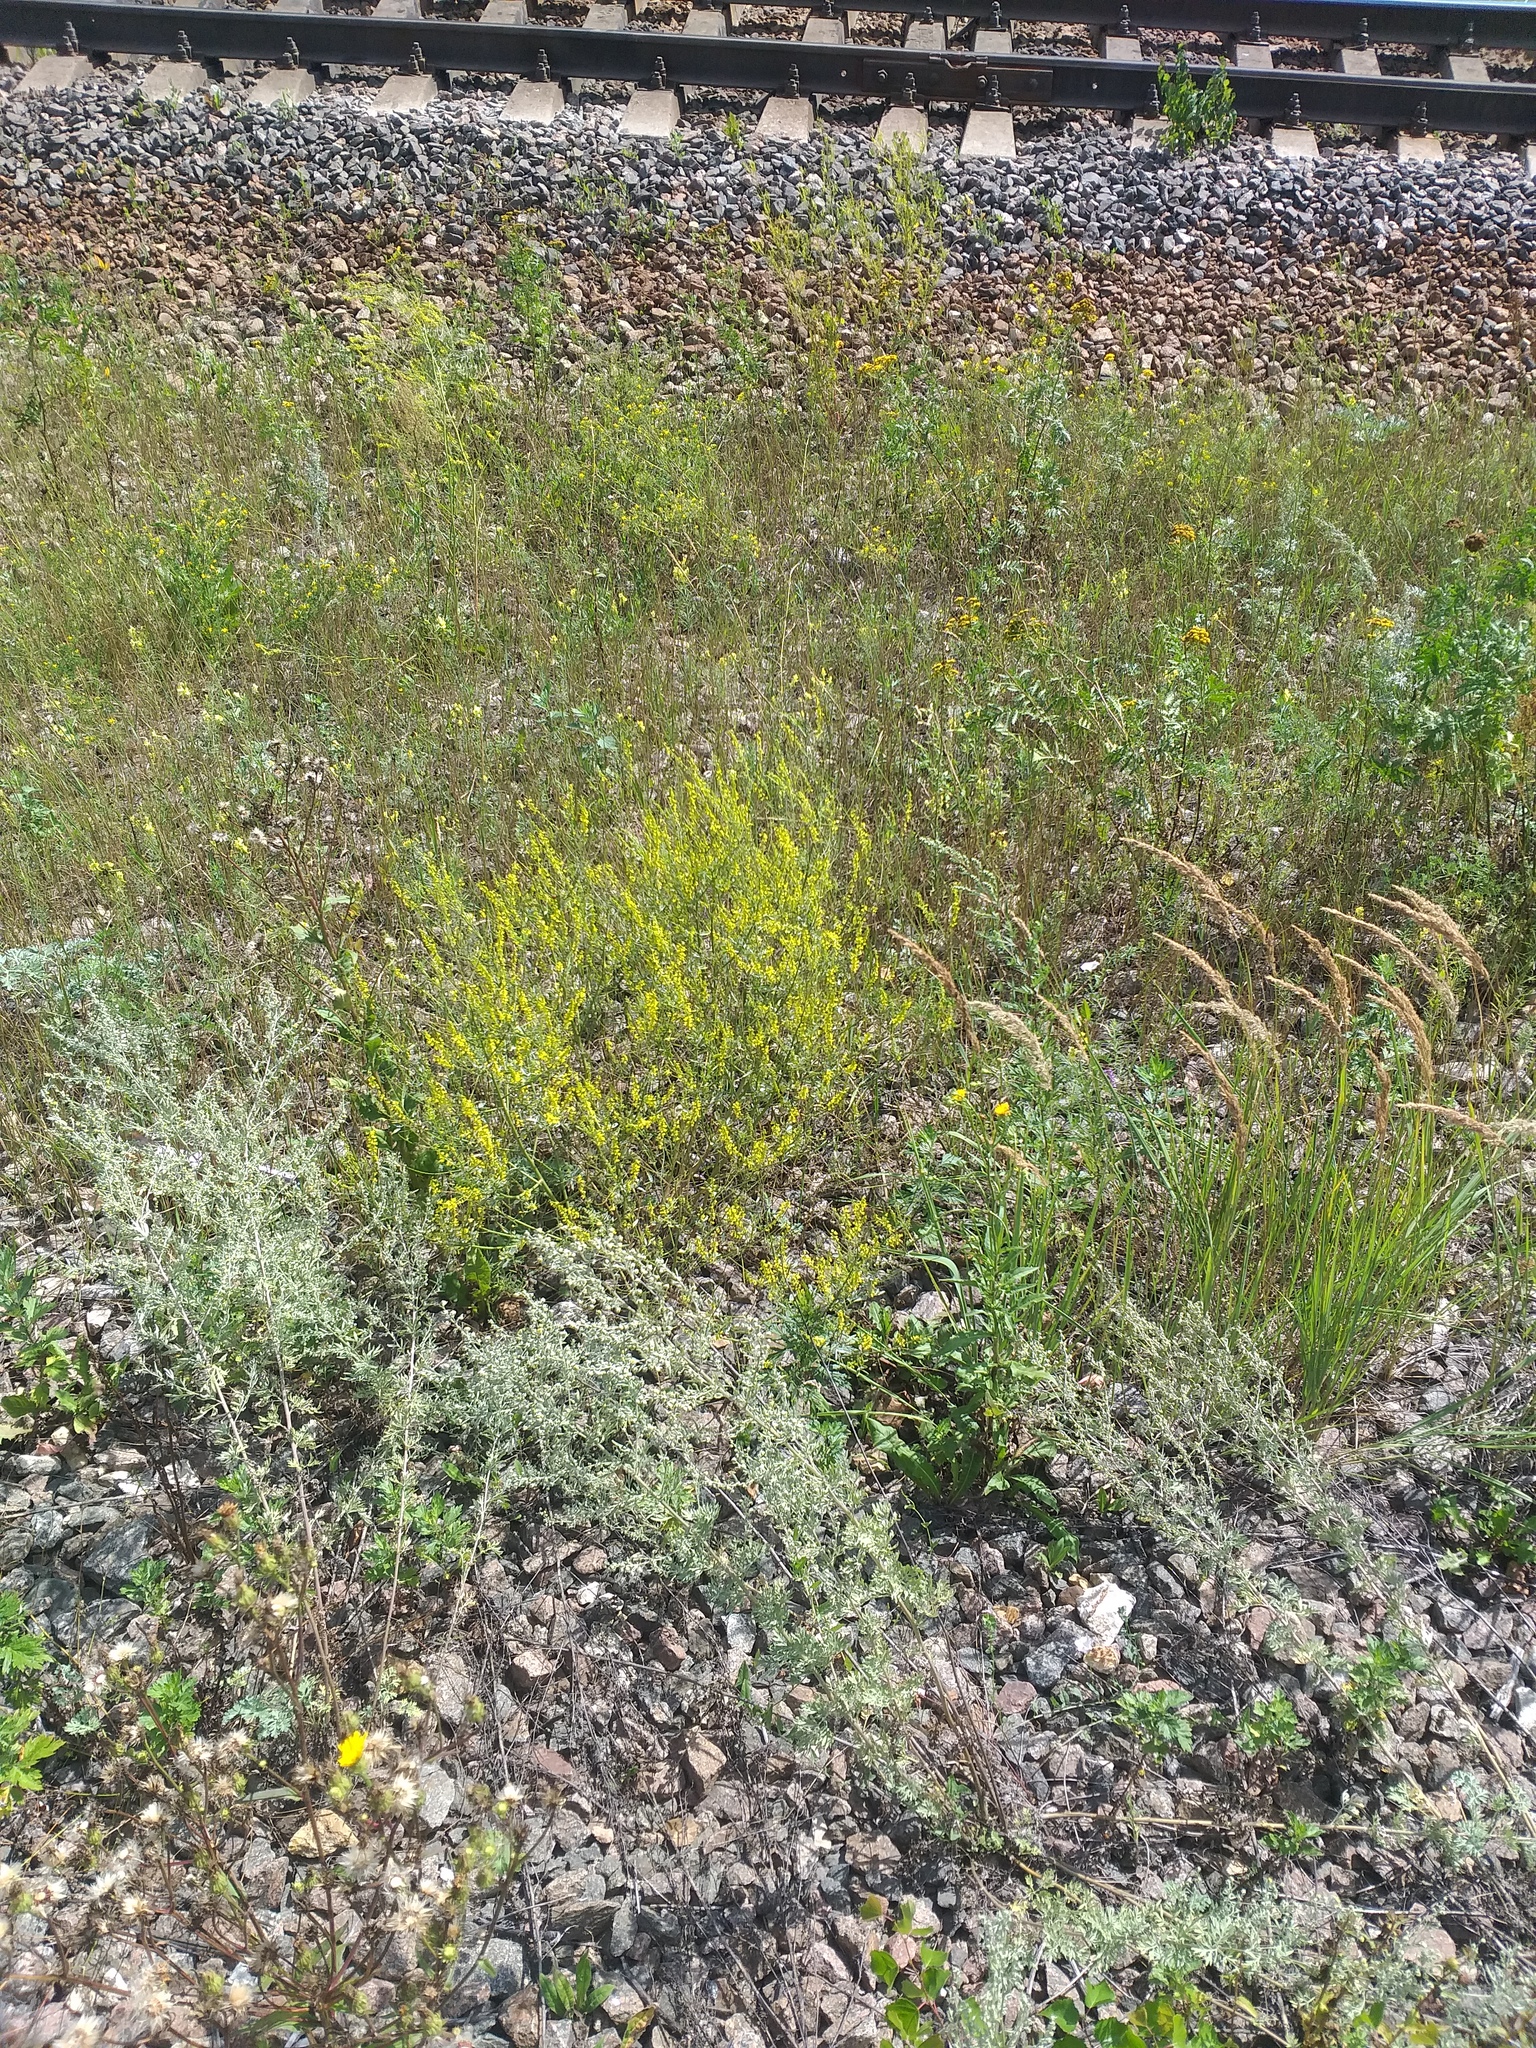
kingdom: Plantae
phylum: Tracheophyta
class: Magnoliopsida
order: Fabales
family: Fabaceae
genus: Melilotus
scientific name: Melilotus officinalis
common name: Sweetclover
